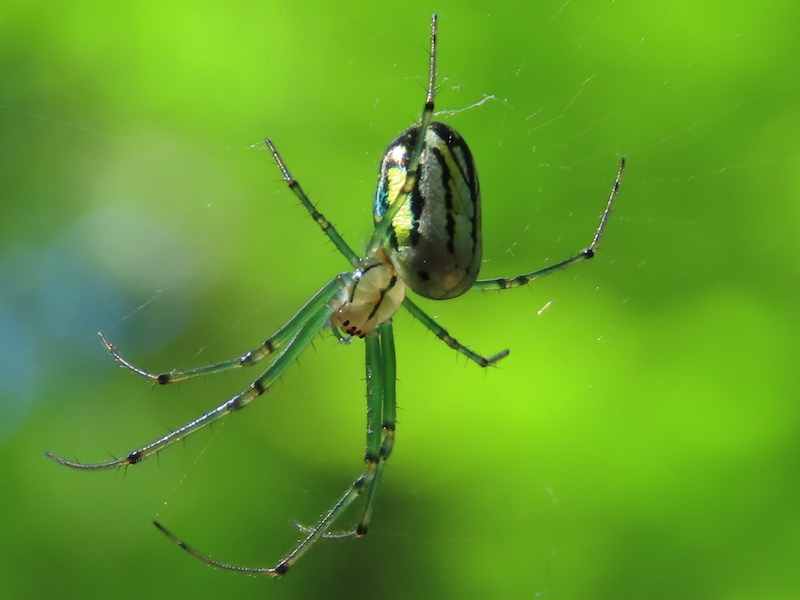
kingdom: Animalia
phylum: Arthropoda
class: Arachnida
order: Araneae
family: Tetragnathidae
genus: Leucauge
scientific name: Leucauge venusta
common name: Longjawed orb weavers
